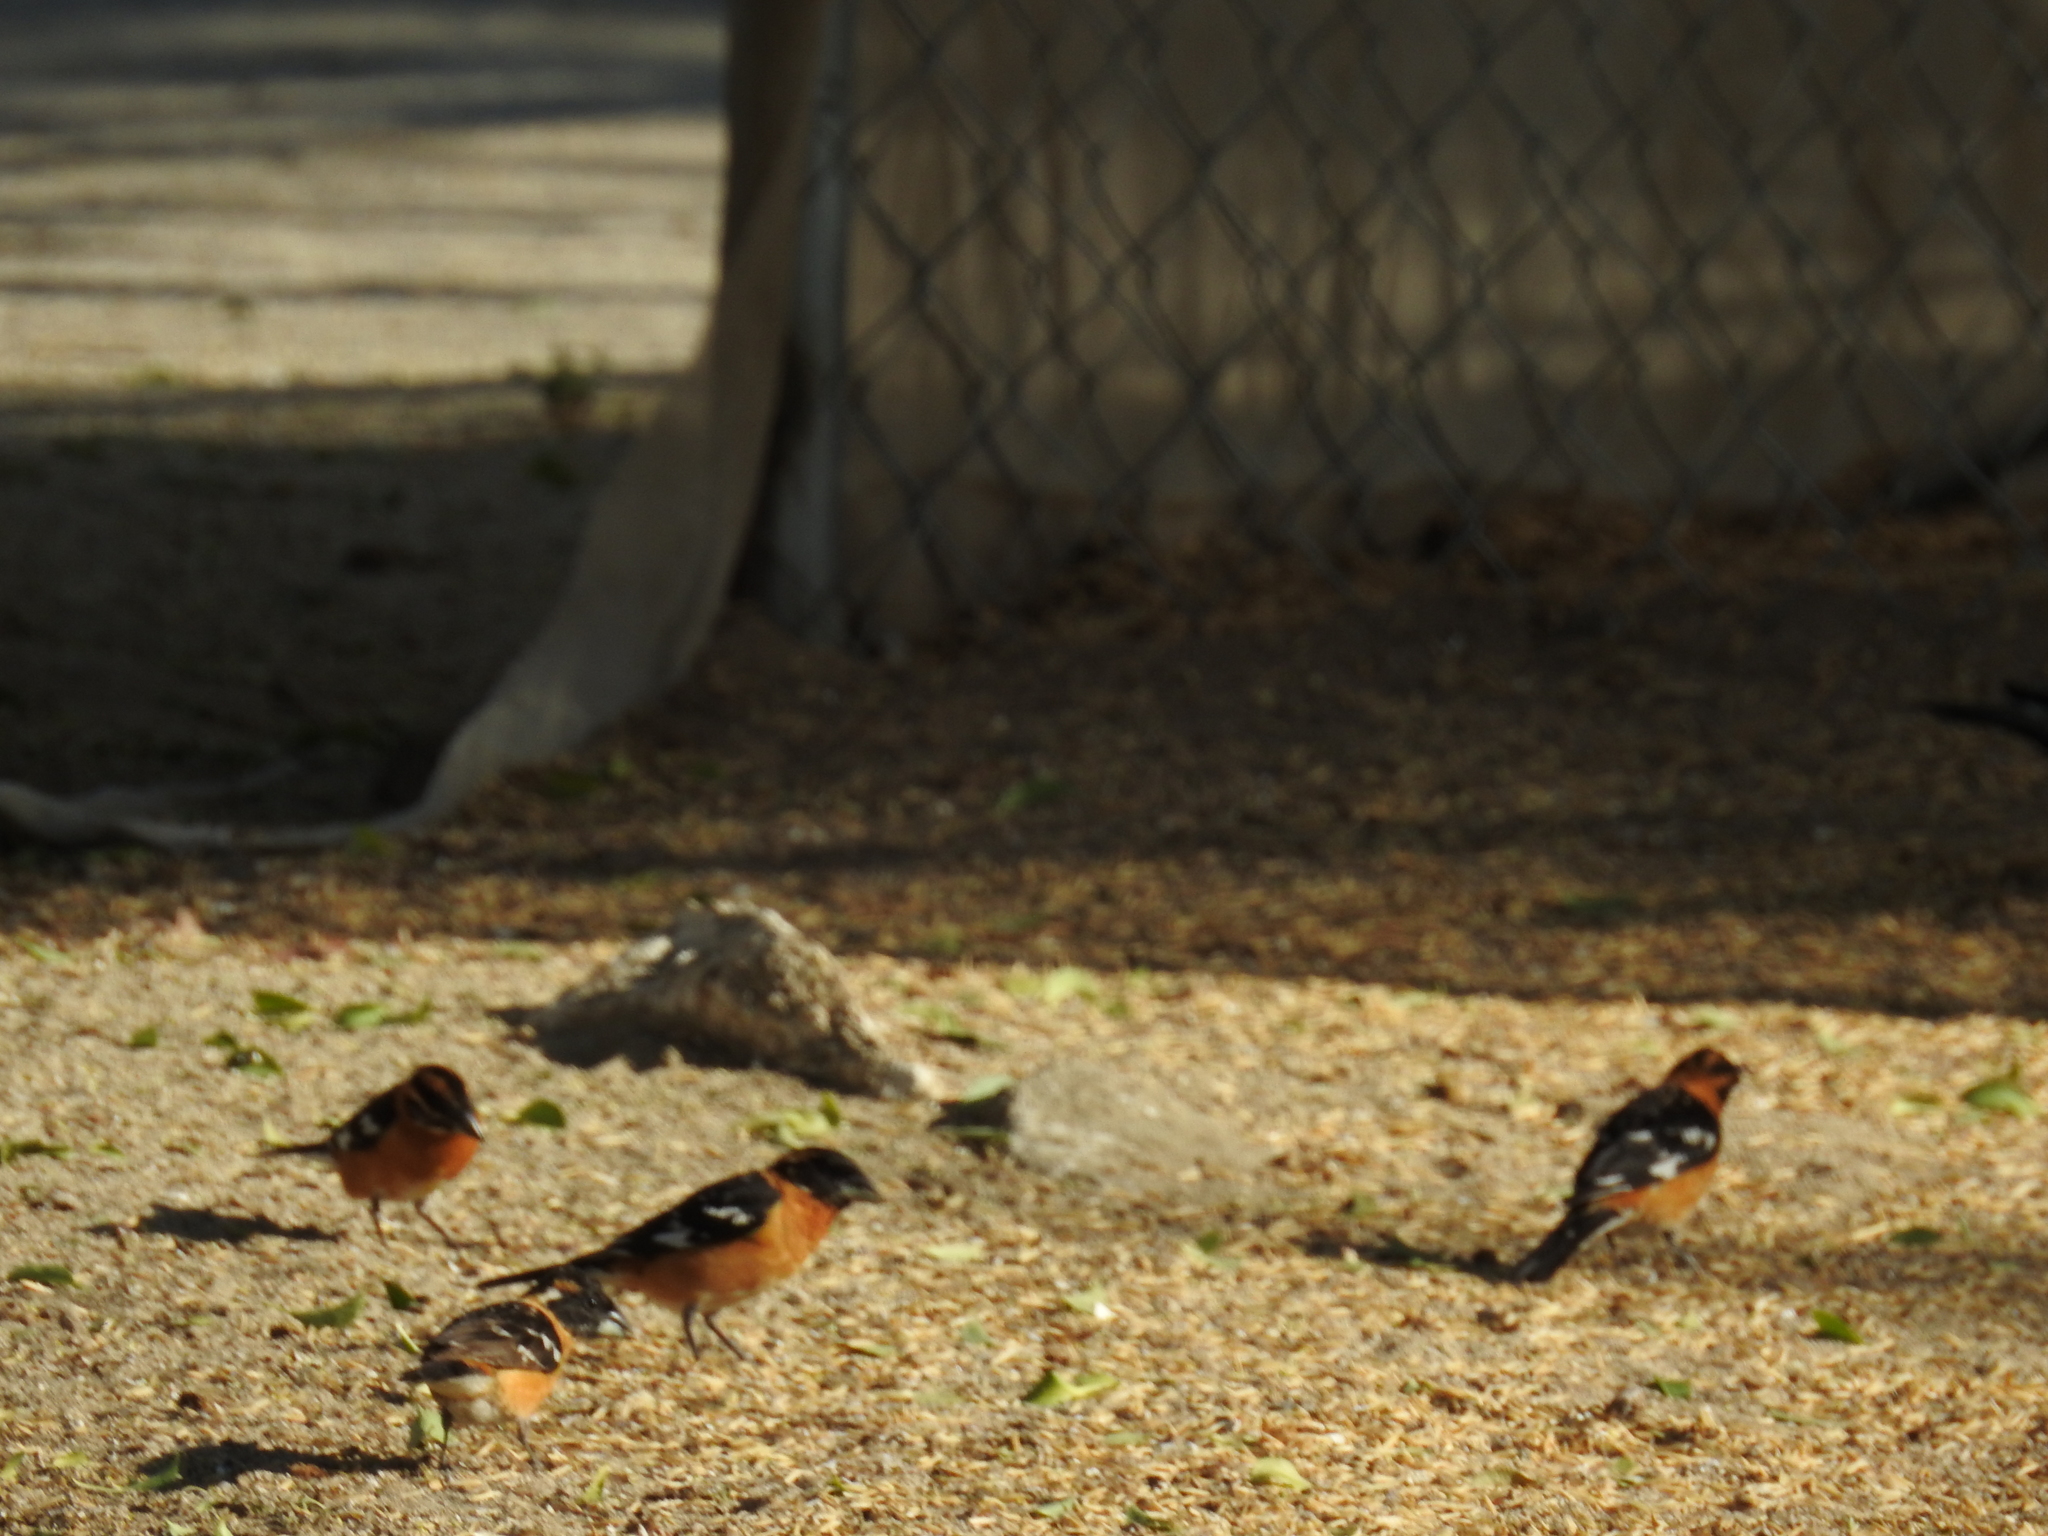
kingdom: Animalia
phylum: Chordata
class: Aves
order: Passeriformes
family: Cardinalidae
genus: Pheucticus
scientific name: Pheucticus melanocephalus
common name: Black-headed grosbeak
